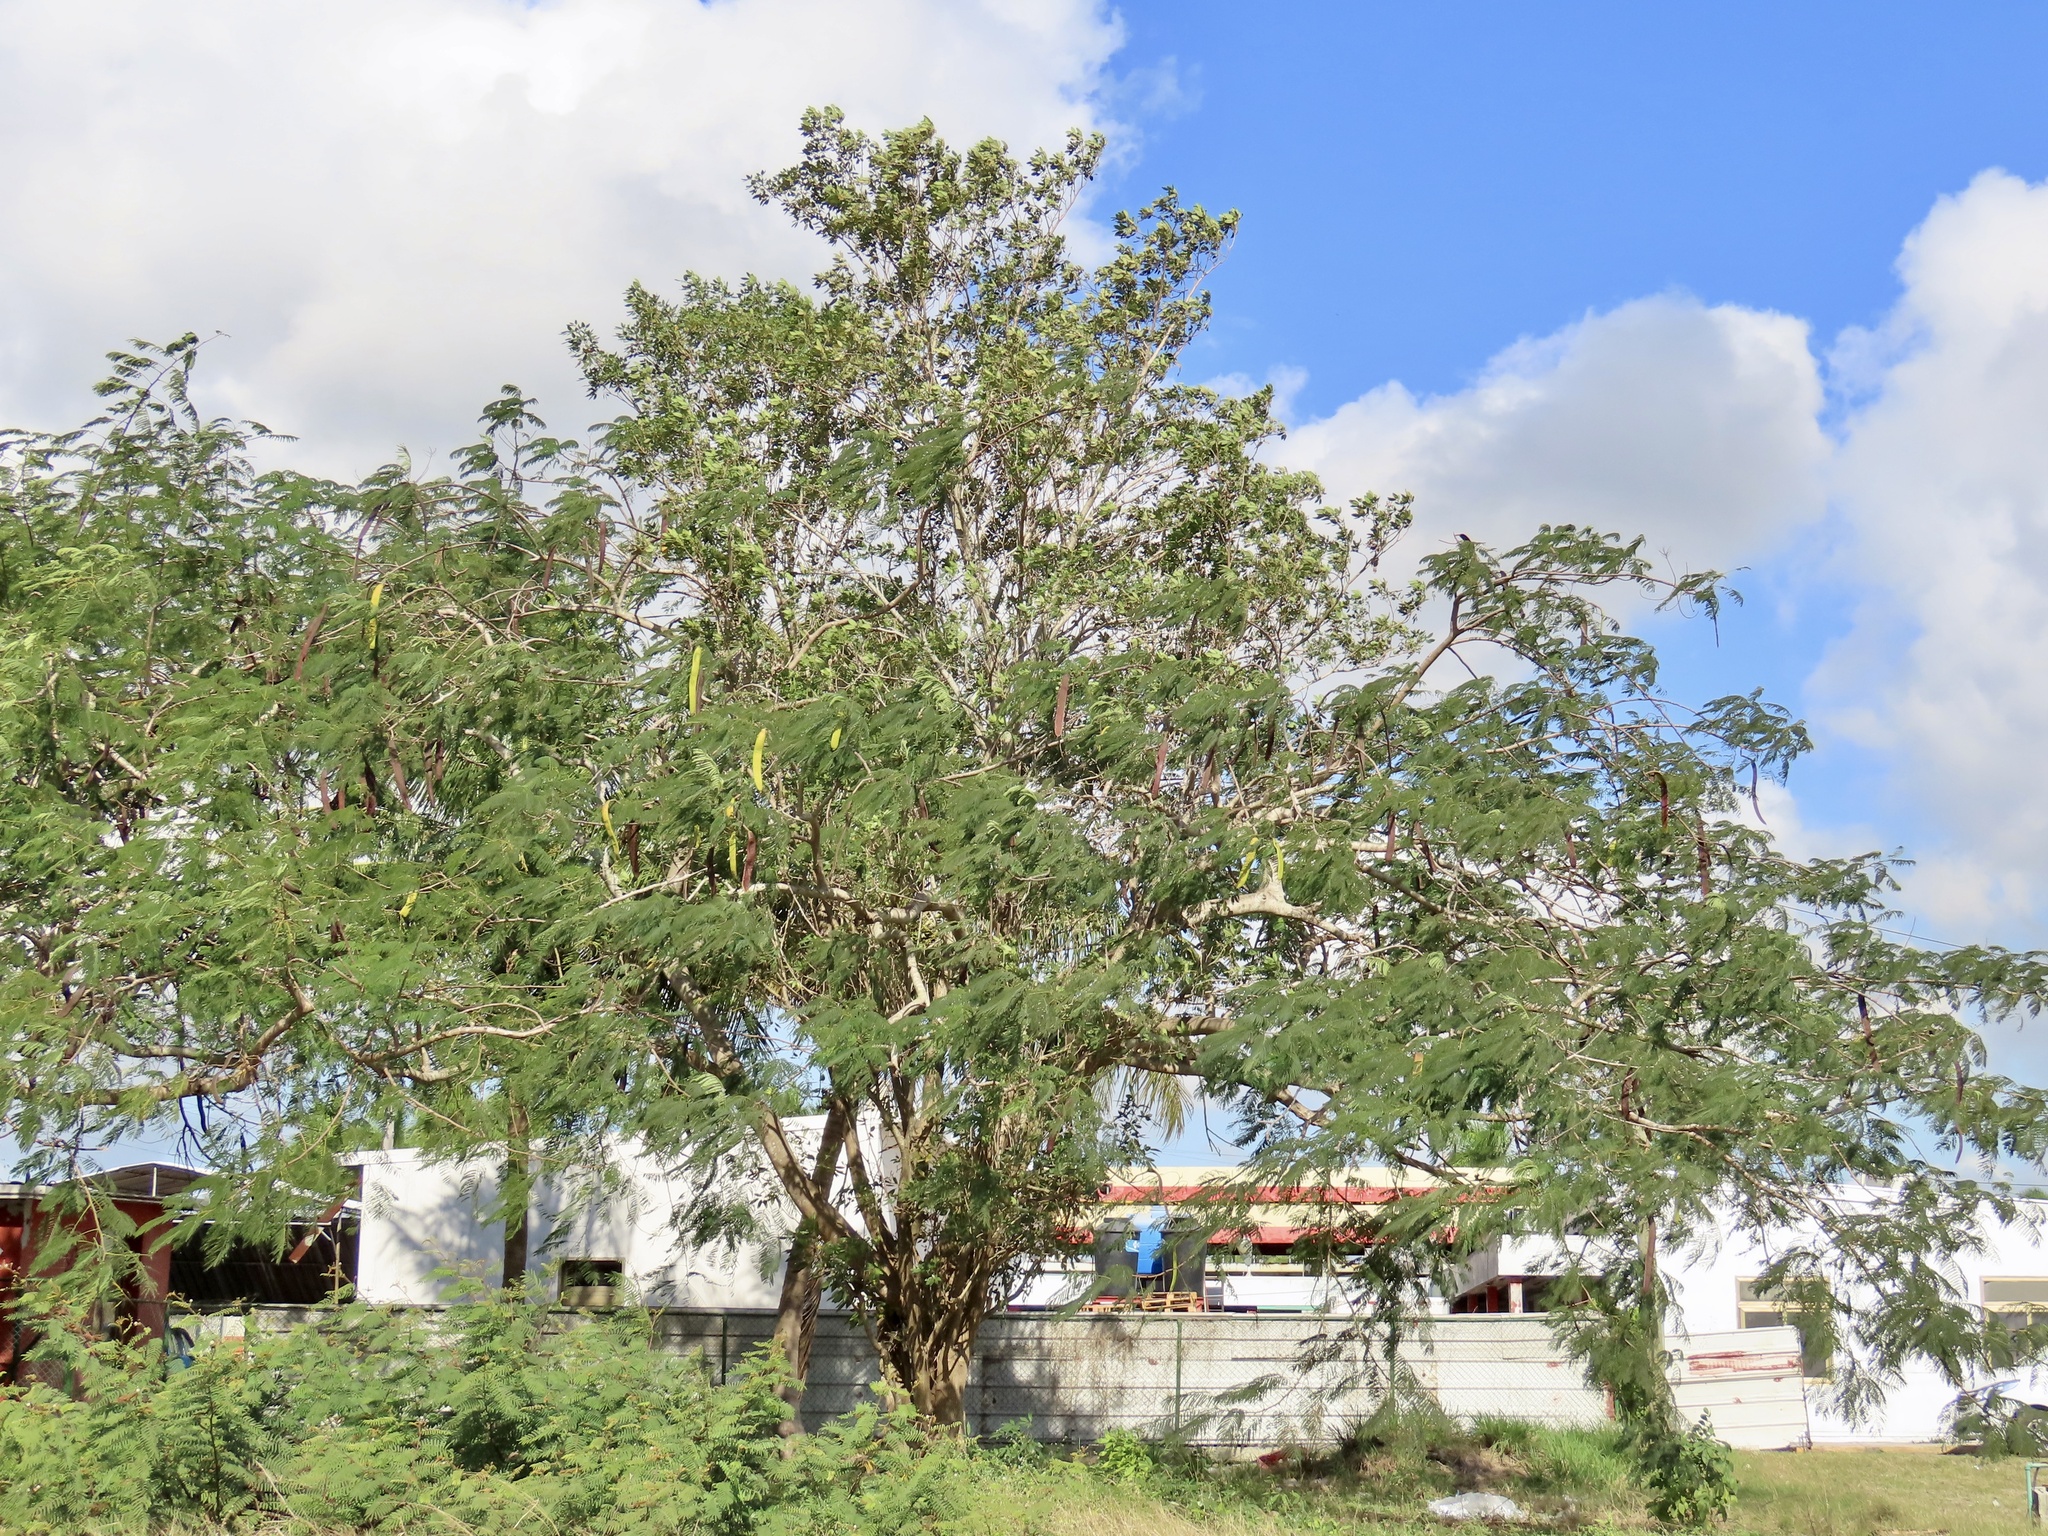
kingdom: Plantae
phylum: Tracheophyta
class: Magnoliopsida
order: Fabales
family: Fabaceae
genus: Delonix
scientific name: Delonix regia
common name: Royal poinciana
